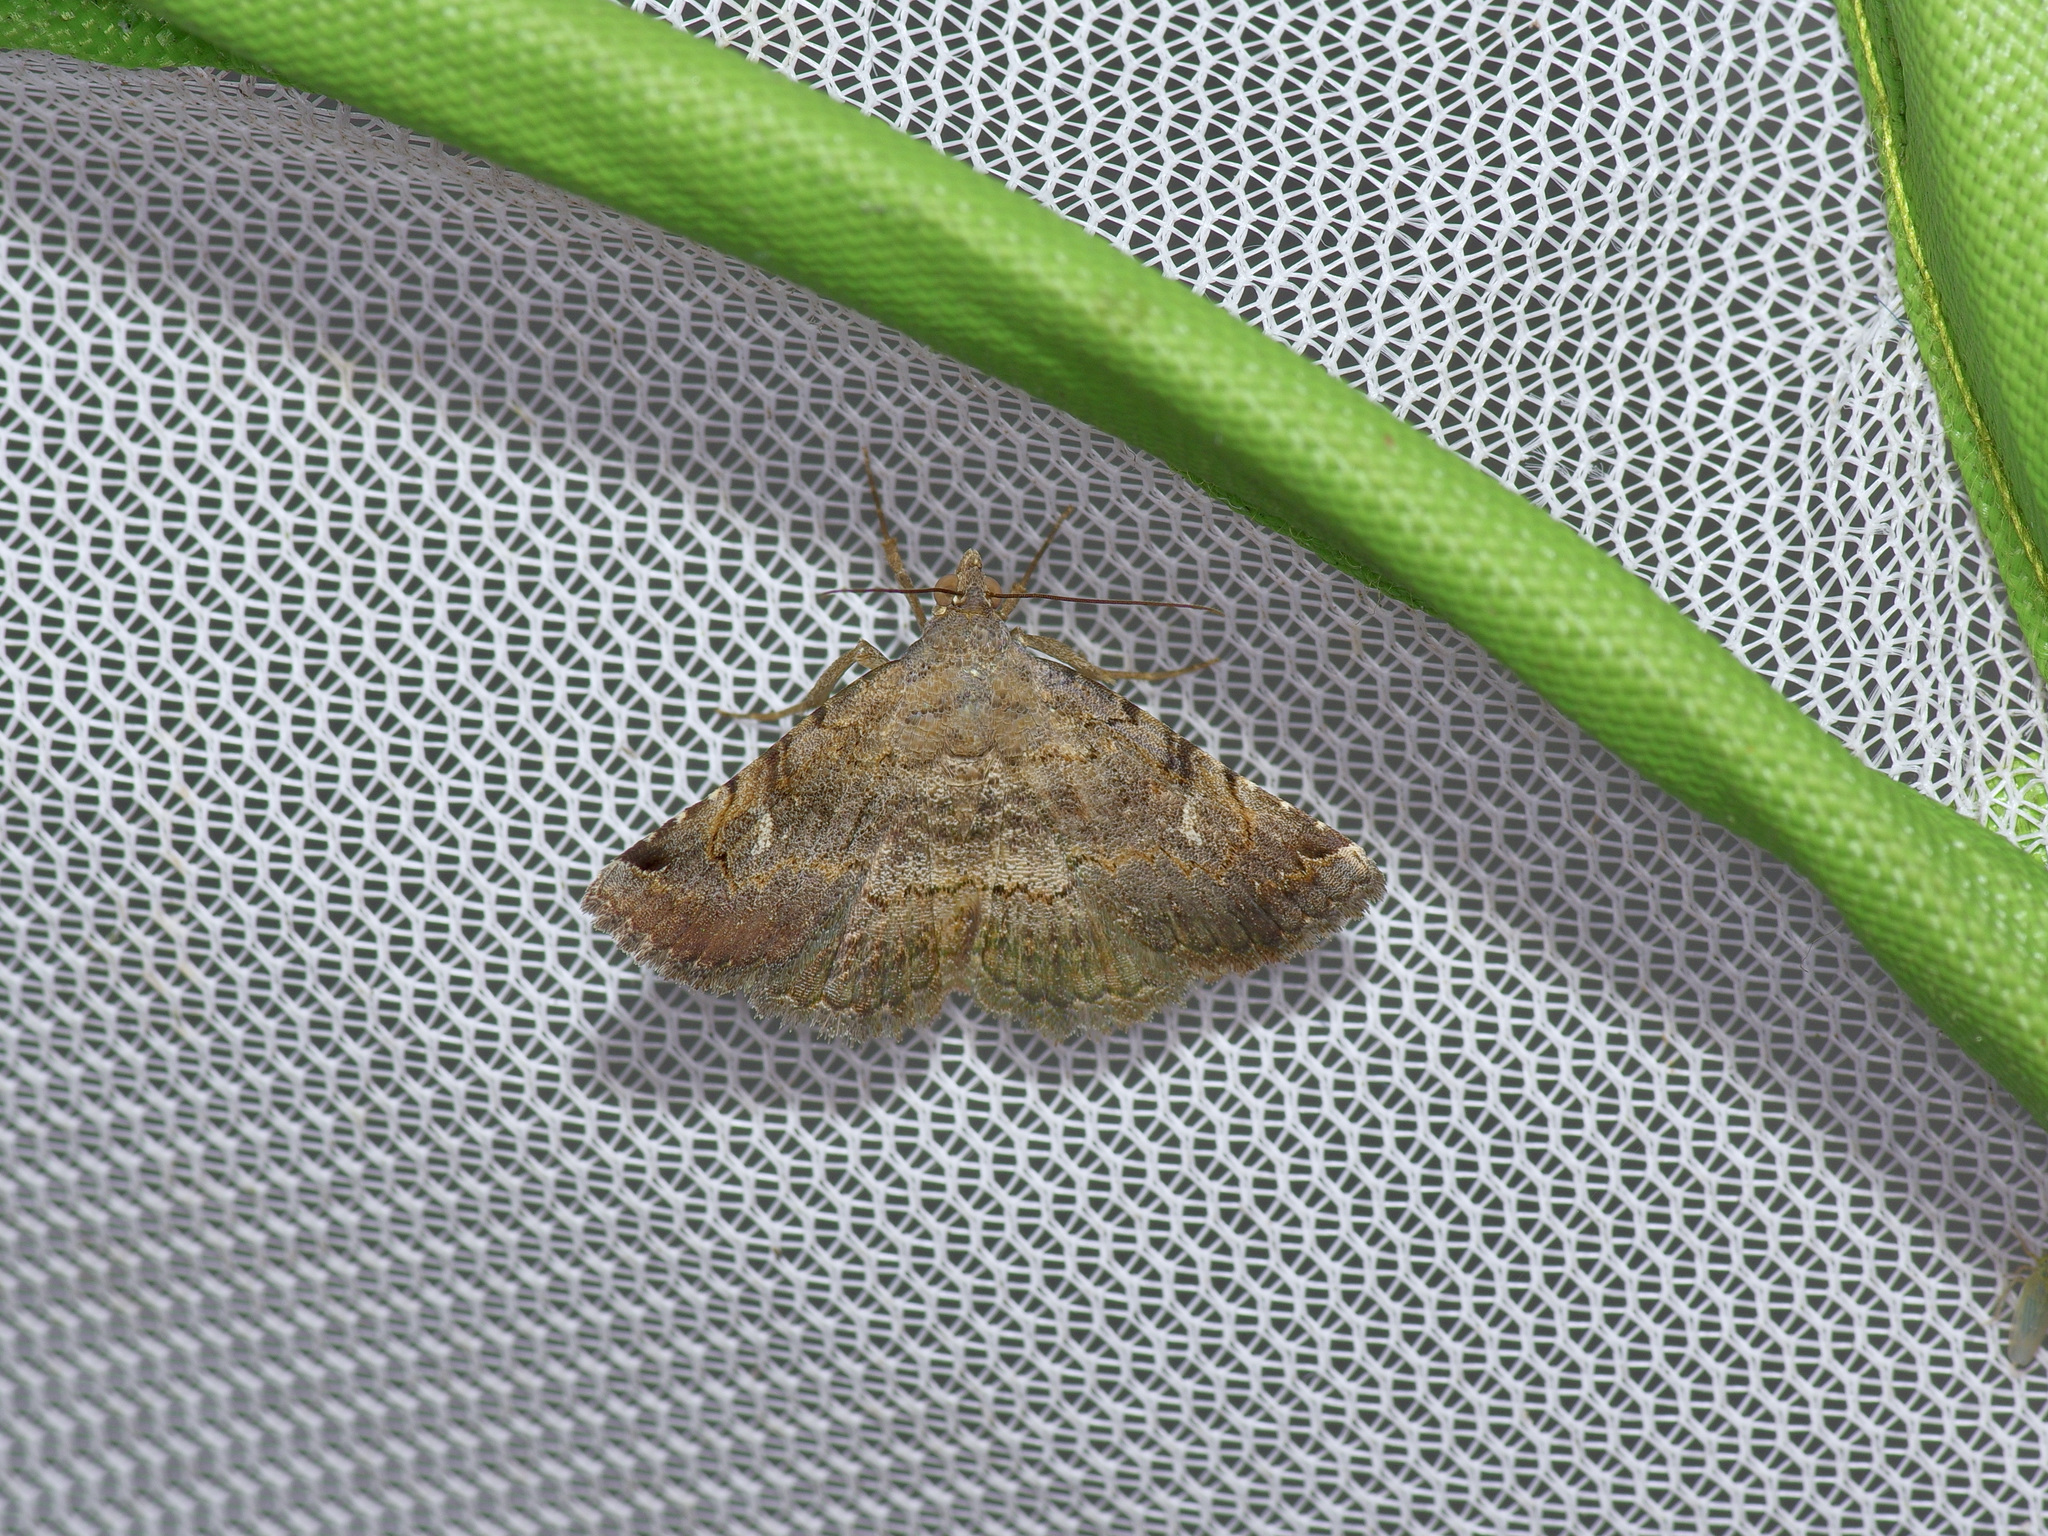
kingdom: Animalia
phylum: Arthropoda
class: Insecta
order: Lepidoptera
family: Erebidae
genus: Toxonprucha
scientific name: Toxonprucha crudelis
